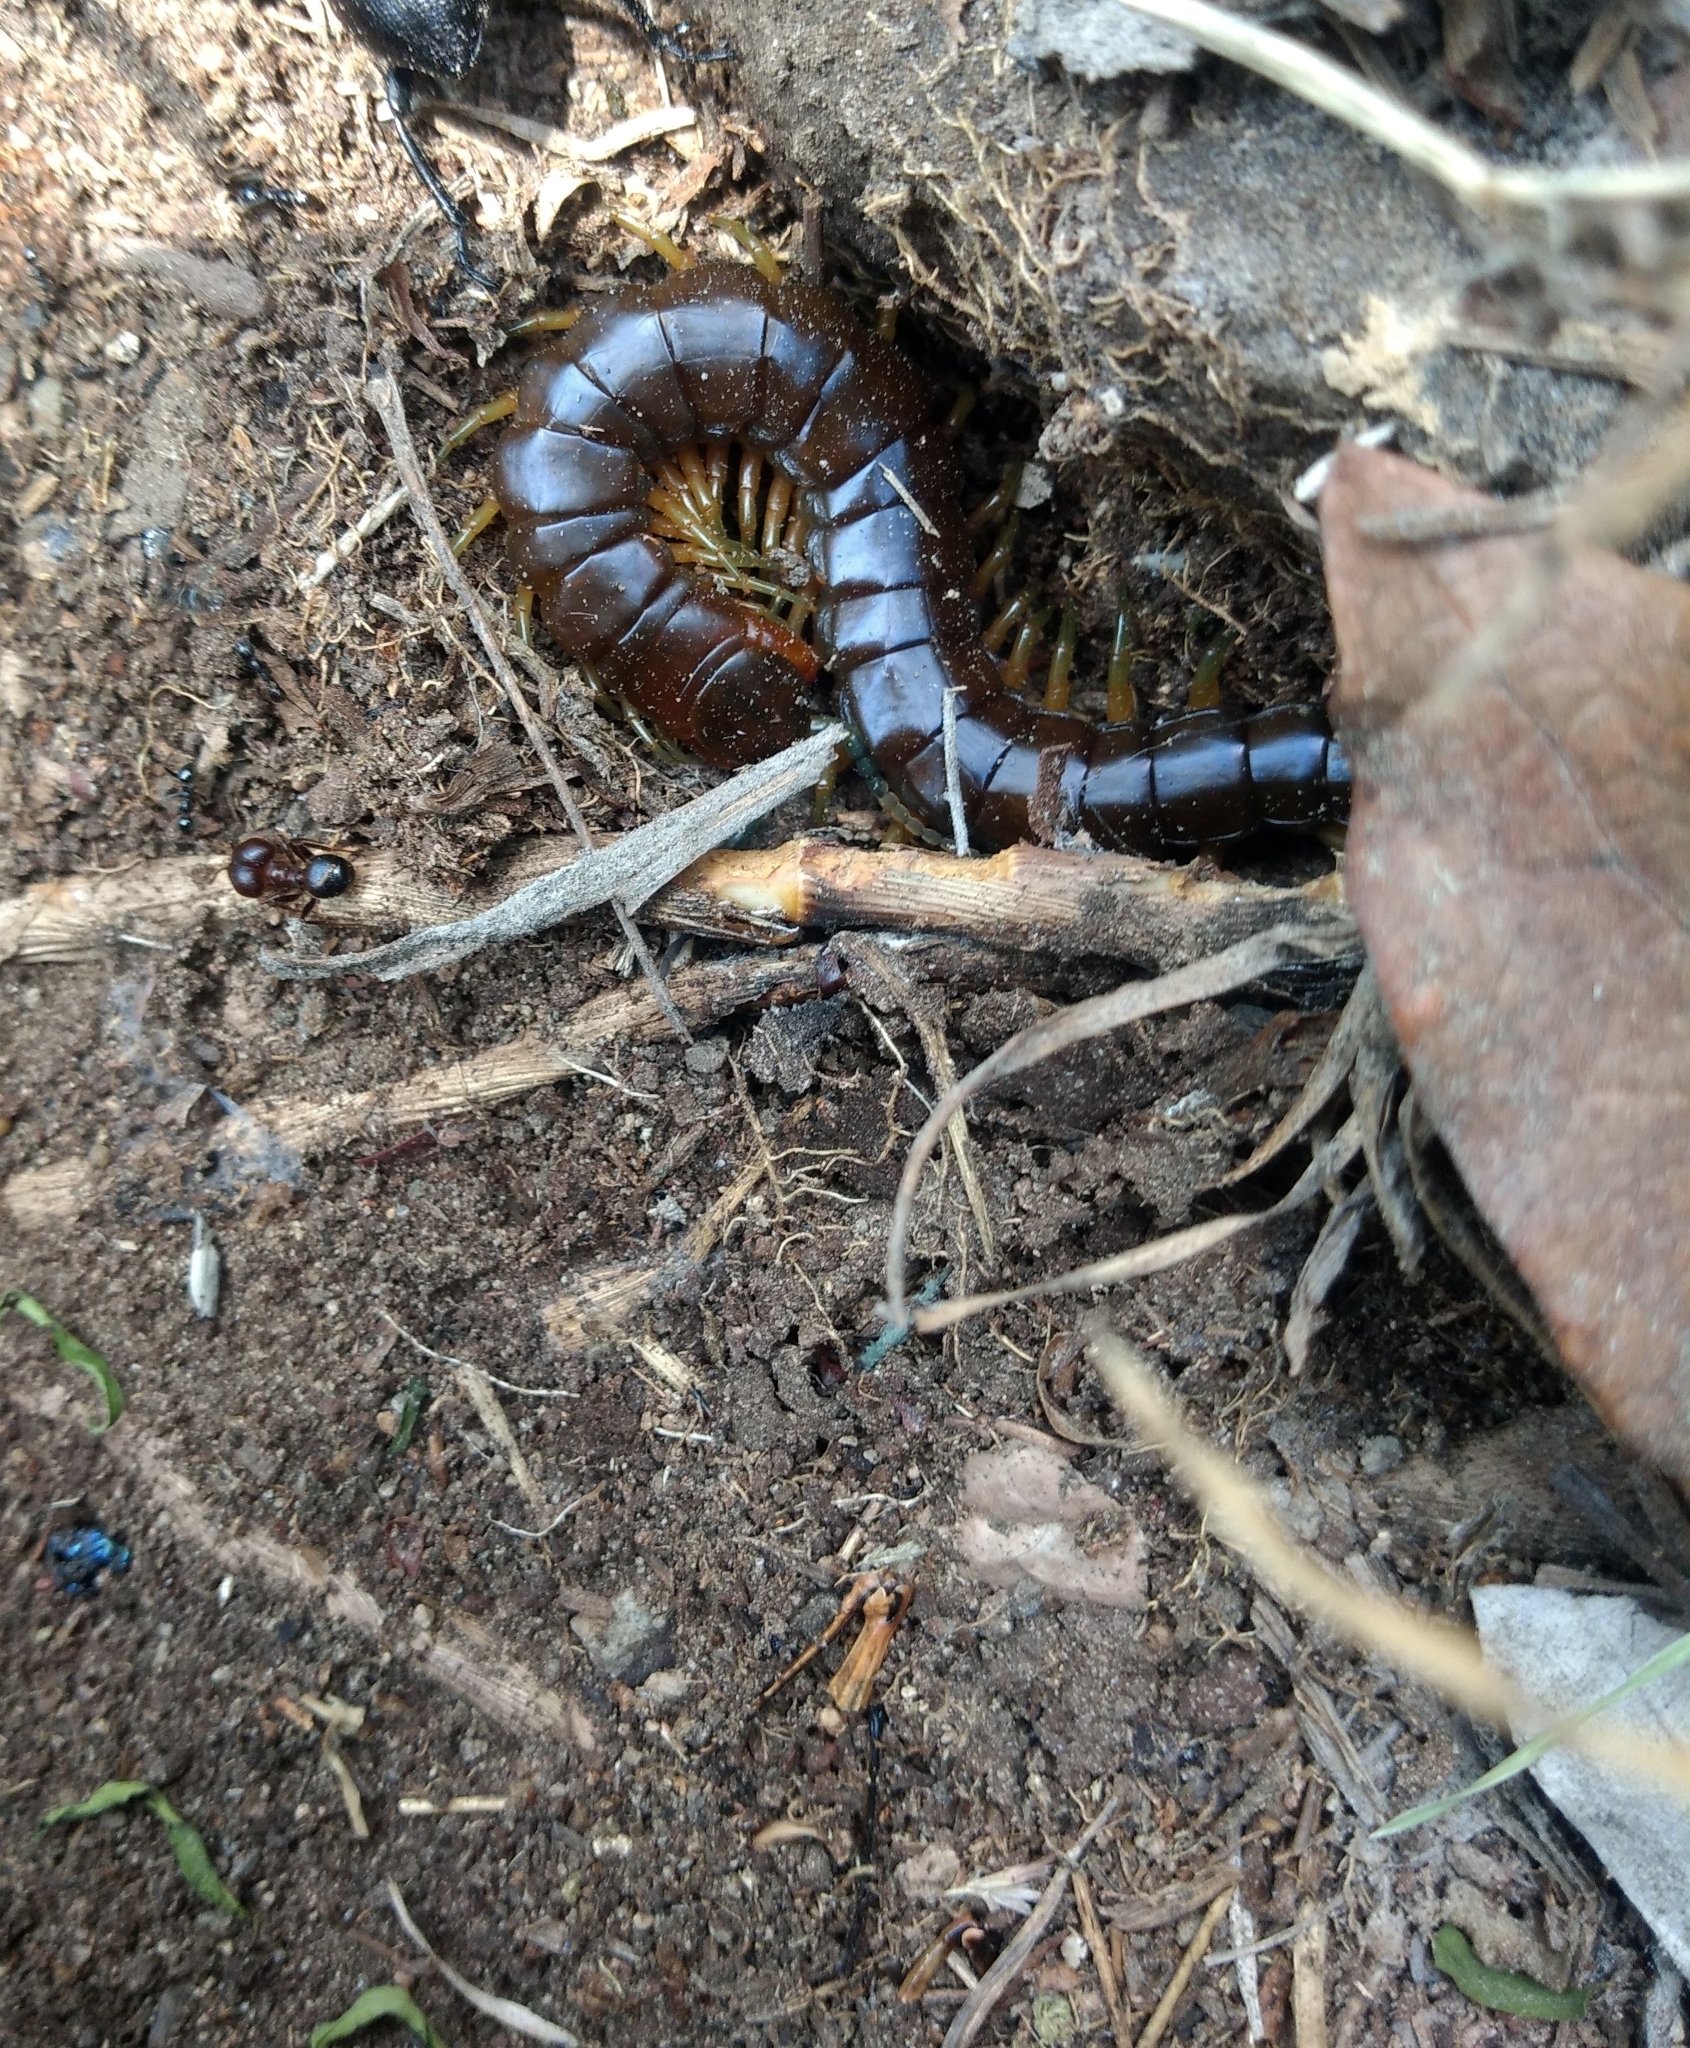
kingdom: Animalia
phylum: Arthropoda
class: Chilopoda
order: Scolopendromorpha
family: Scolopendridae
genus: Scolopendra
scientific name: Scolopendra viridis
